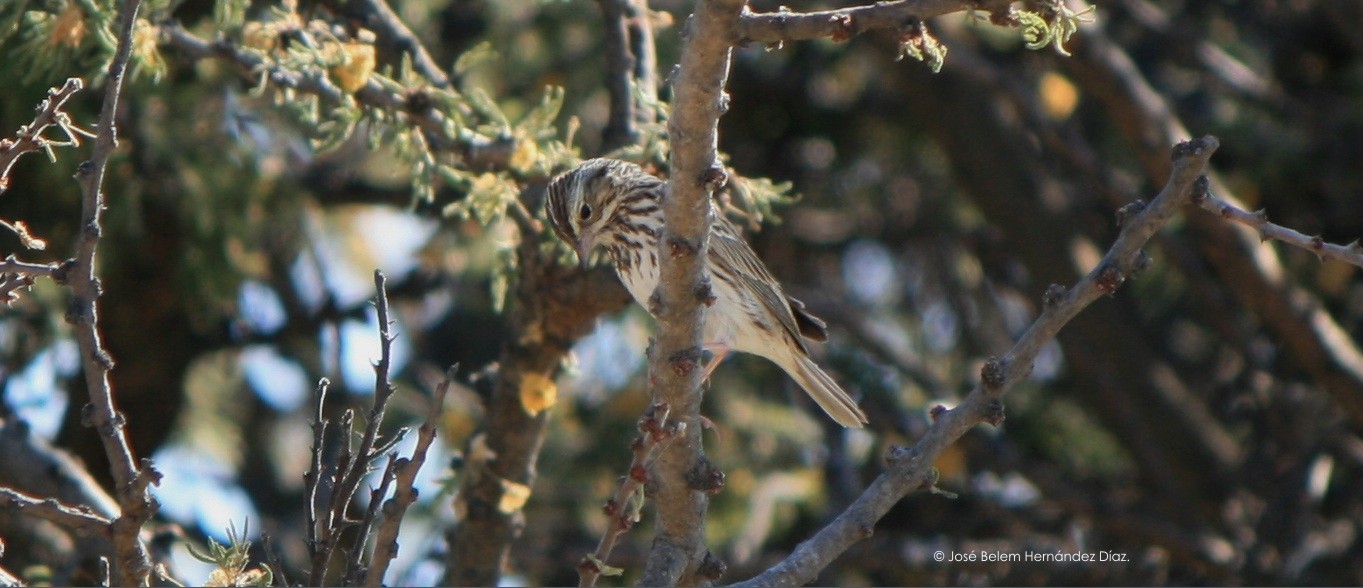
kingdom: Animalia
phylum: Chordata
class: Aves
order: Passeriformes
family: Passerellidae
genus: Passerculus
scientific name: Passerculus sandwichensis
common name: Savannah sparrow
